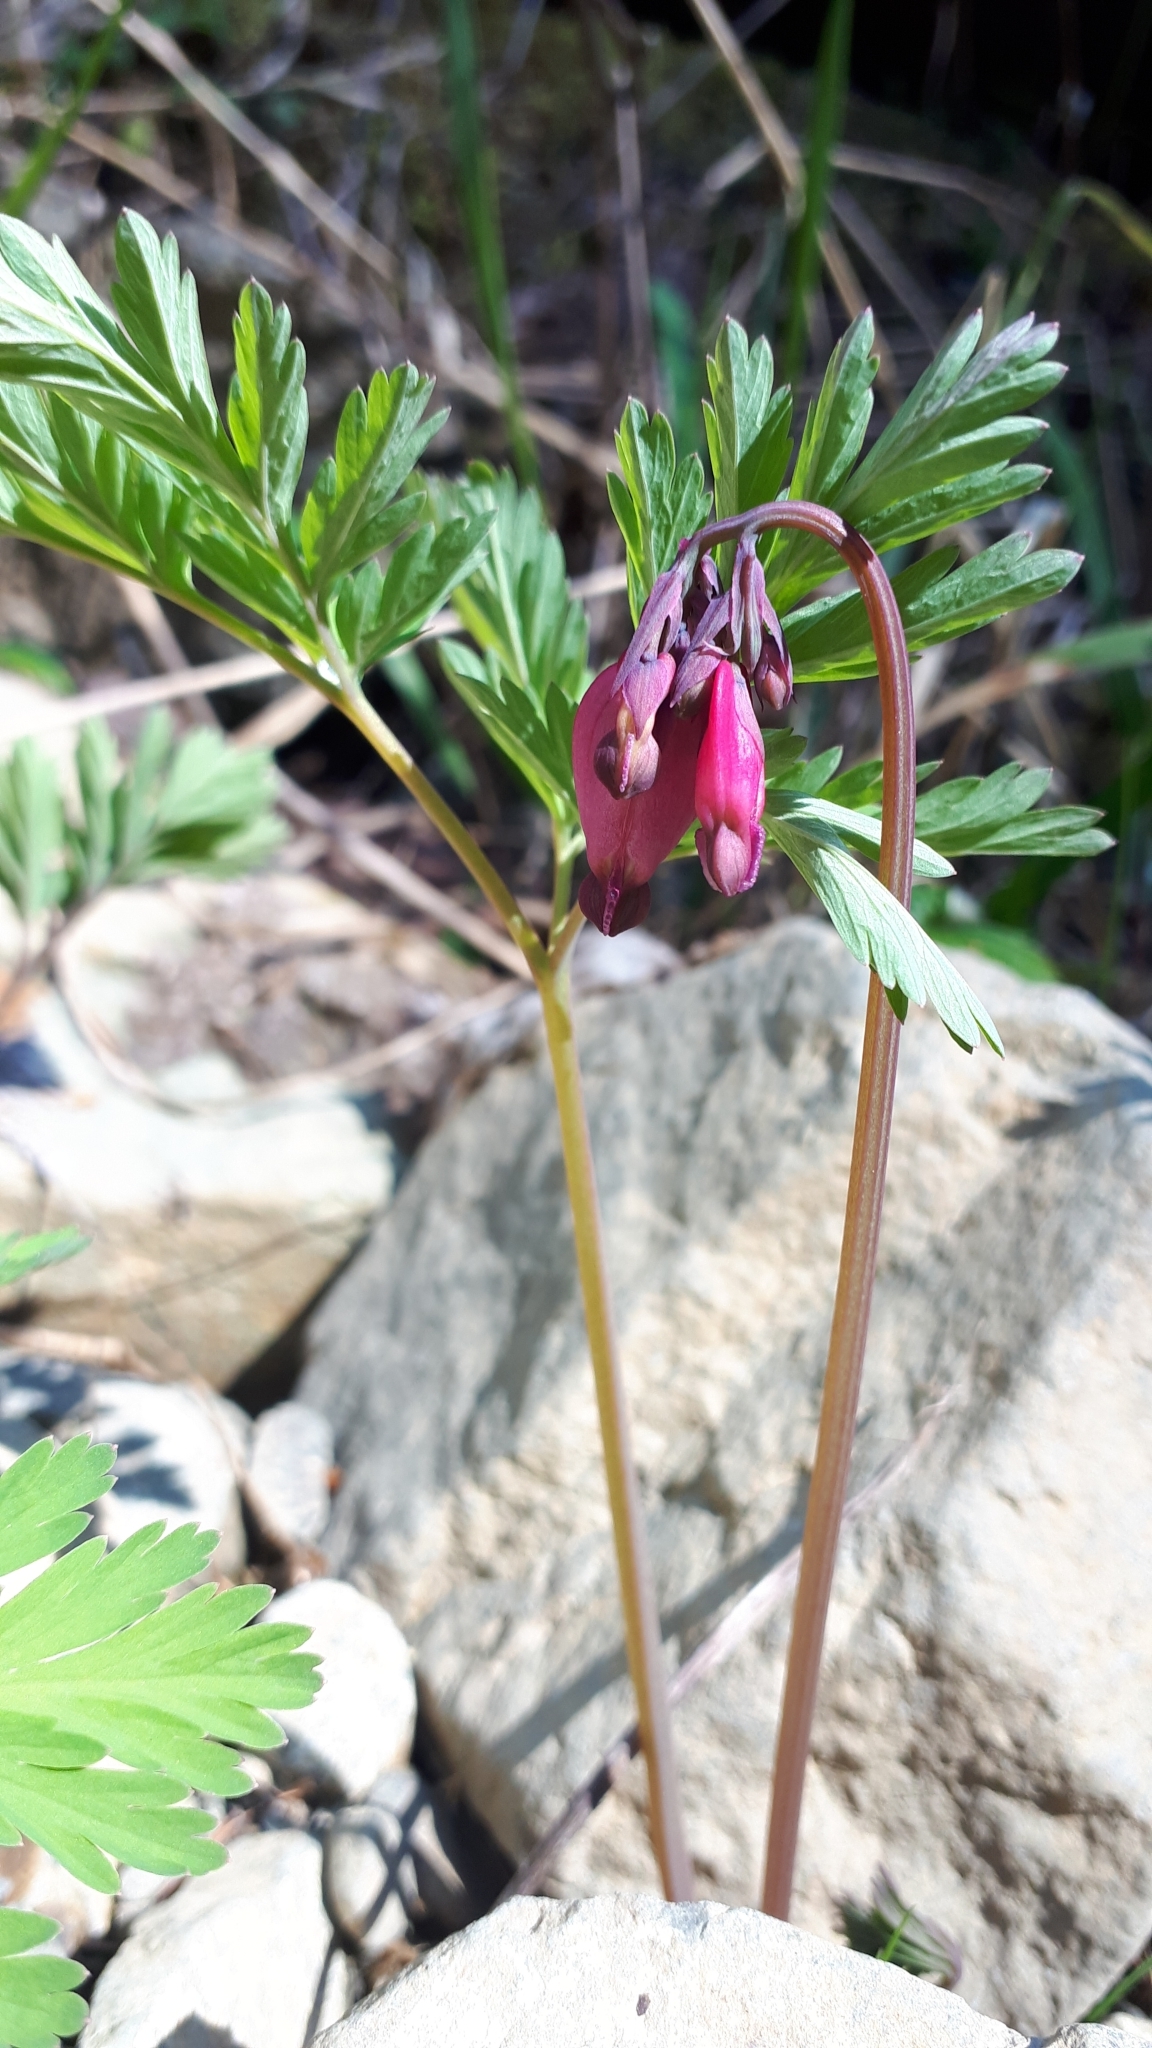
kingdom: Plantae
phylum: Tracheophyta
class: Magnoliopsida
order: Ranunculales
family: Papaveraceae
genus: Dicentra
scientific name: Dicentra formosa
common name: Bleeding-heart
